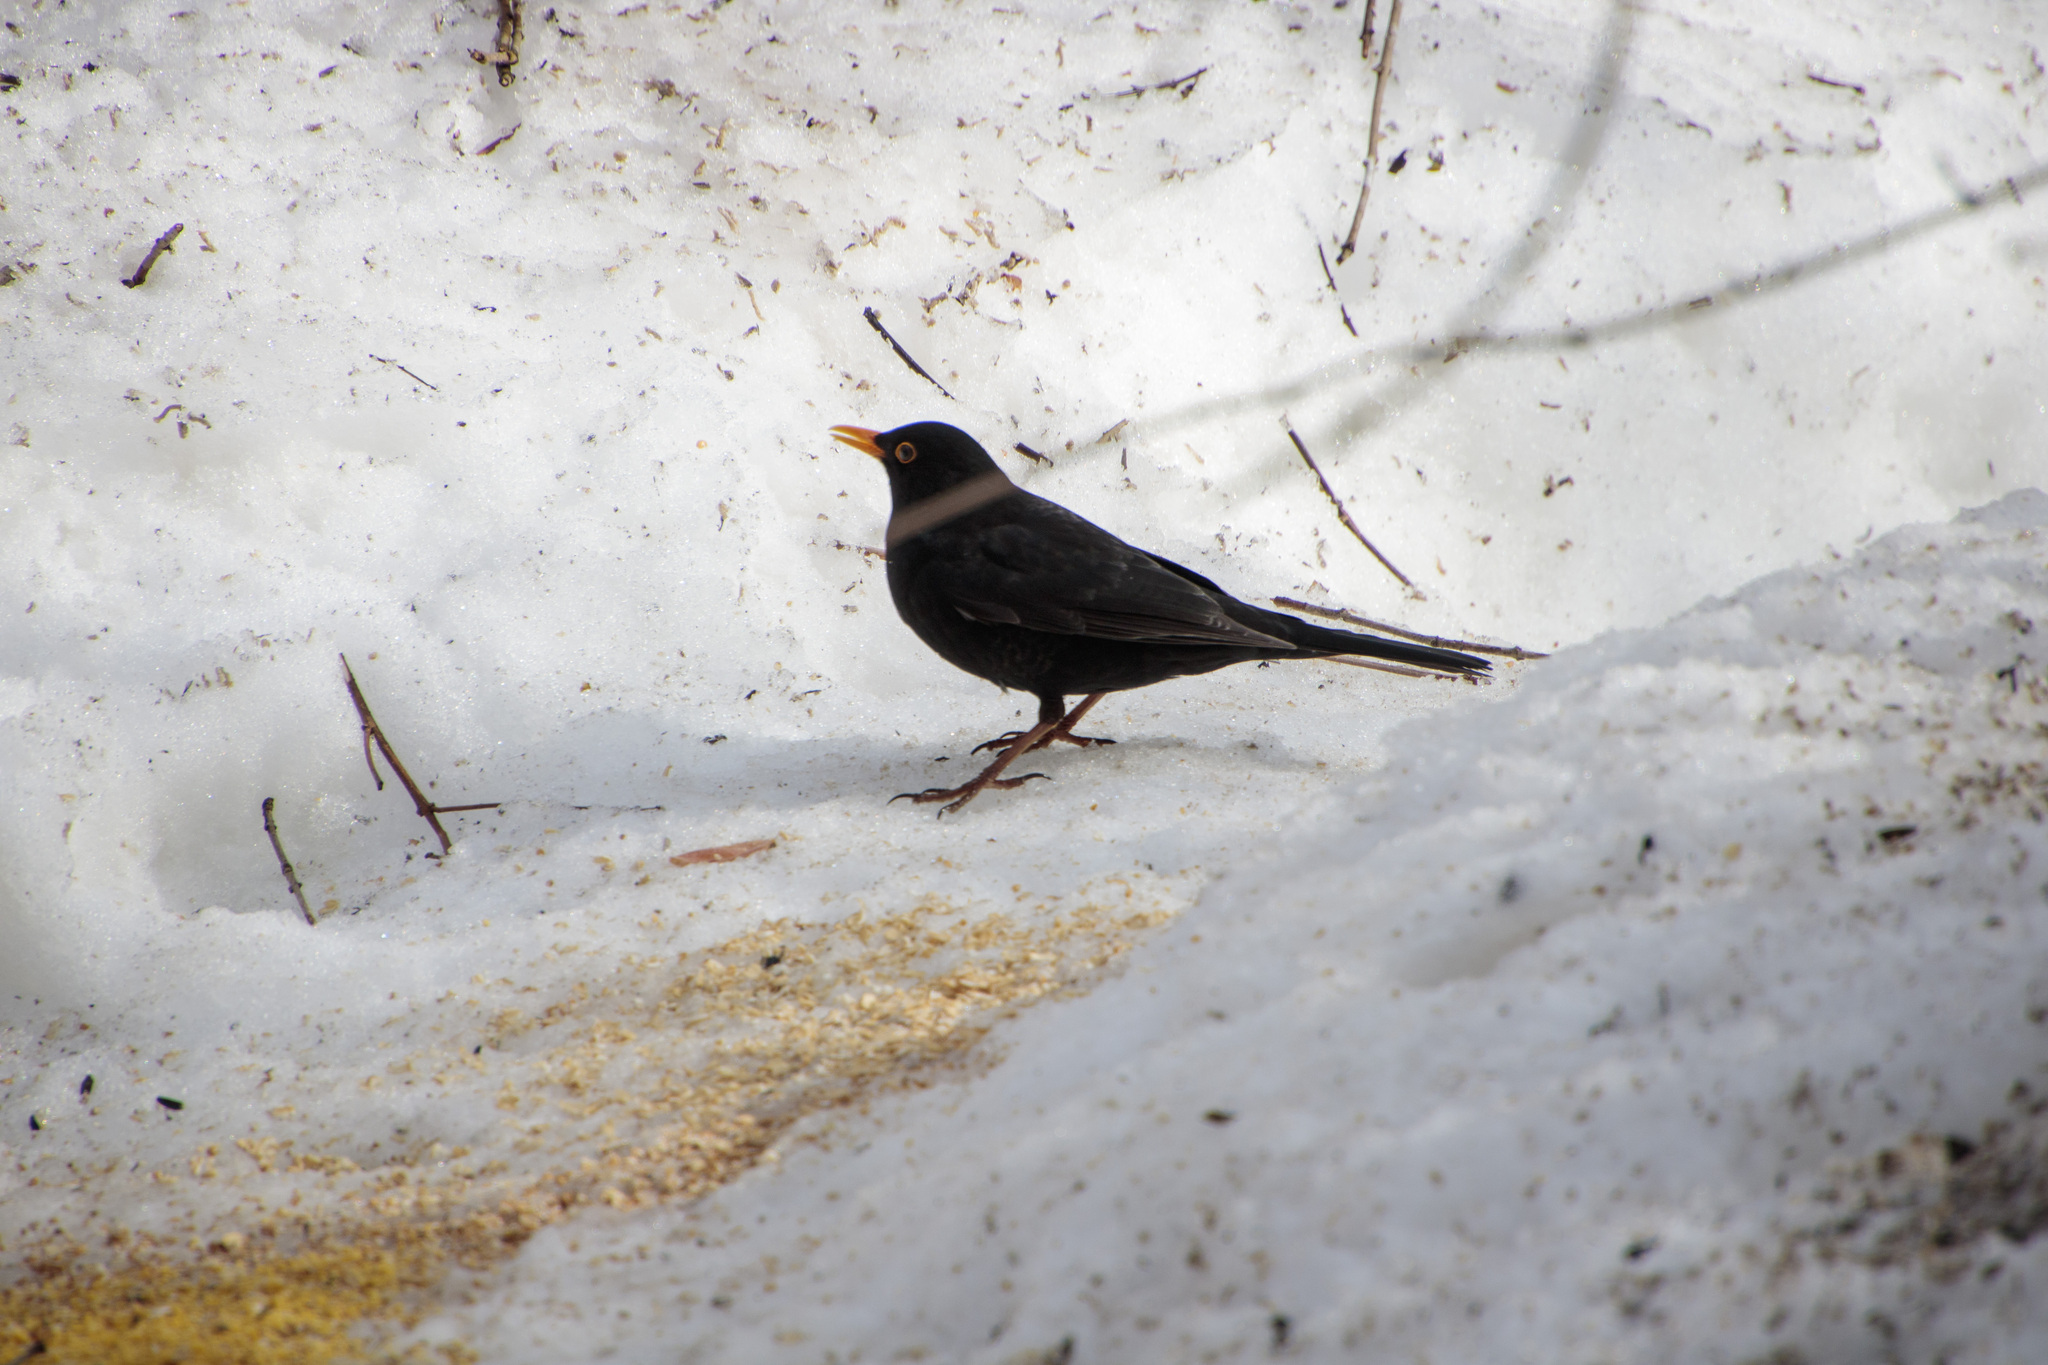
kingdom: Animalia
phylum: Chordata
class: Aves
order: Passeriformes
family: Turdidae
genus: Turdus
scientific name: Turdus merula
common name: Common blackbird
